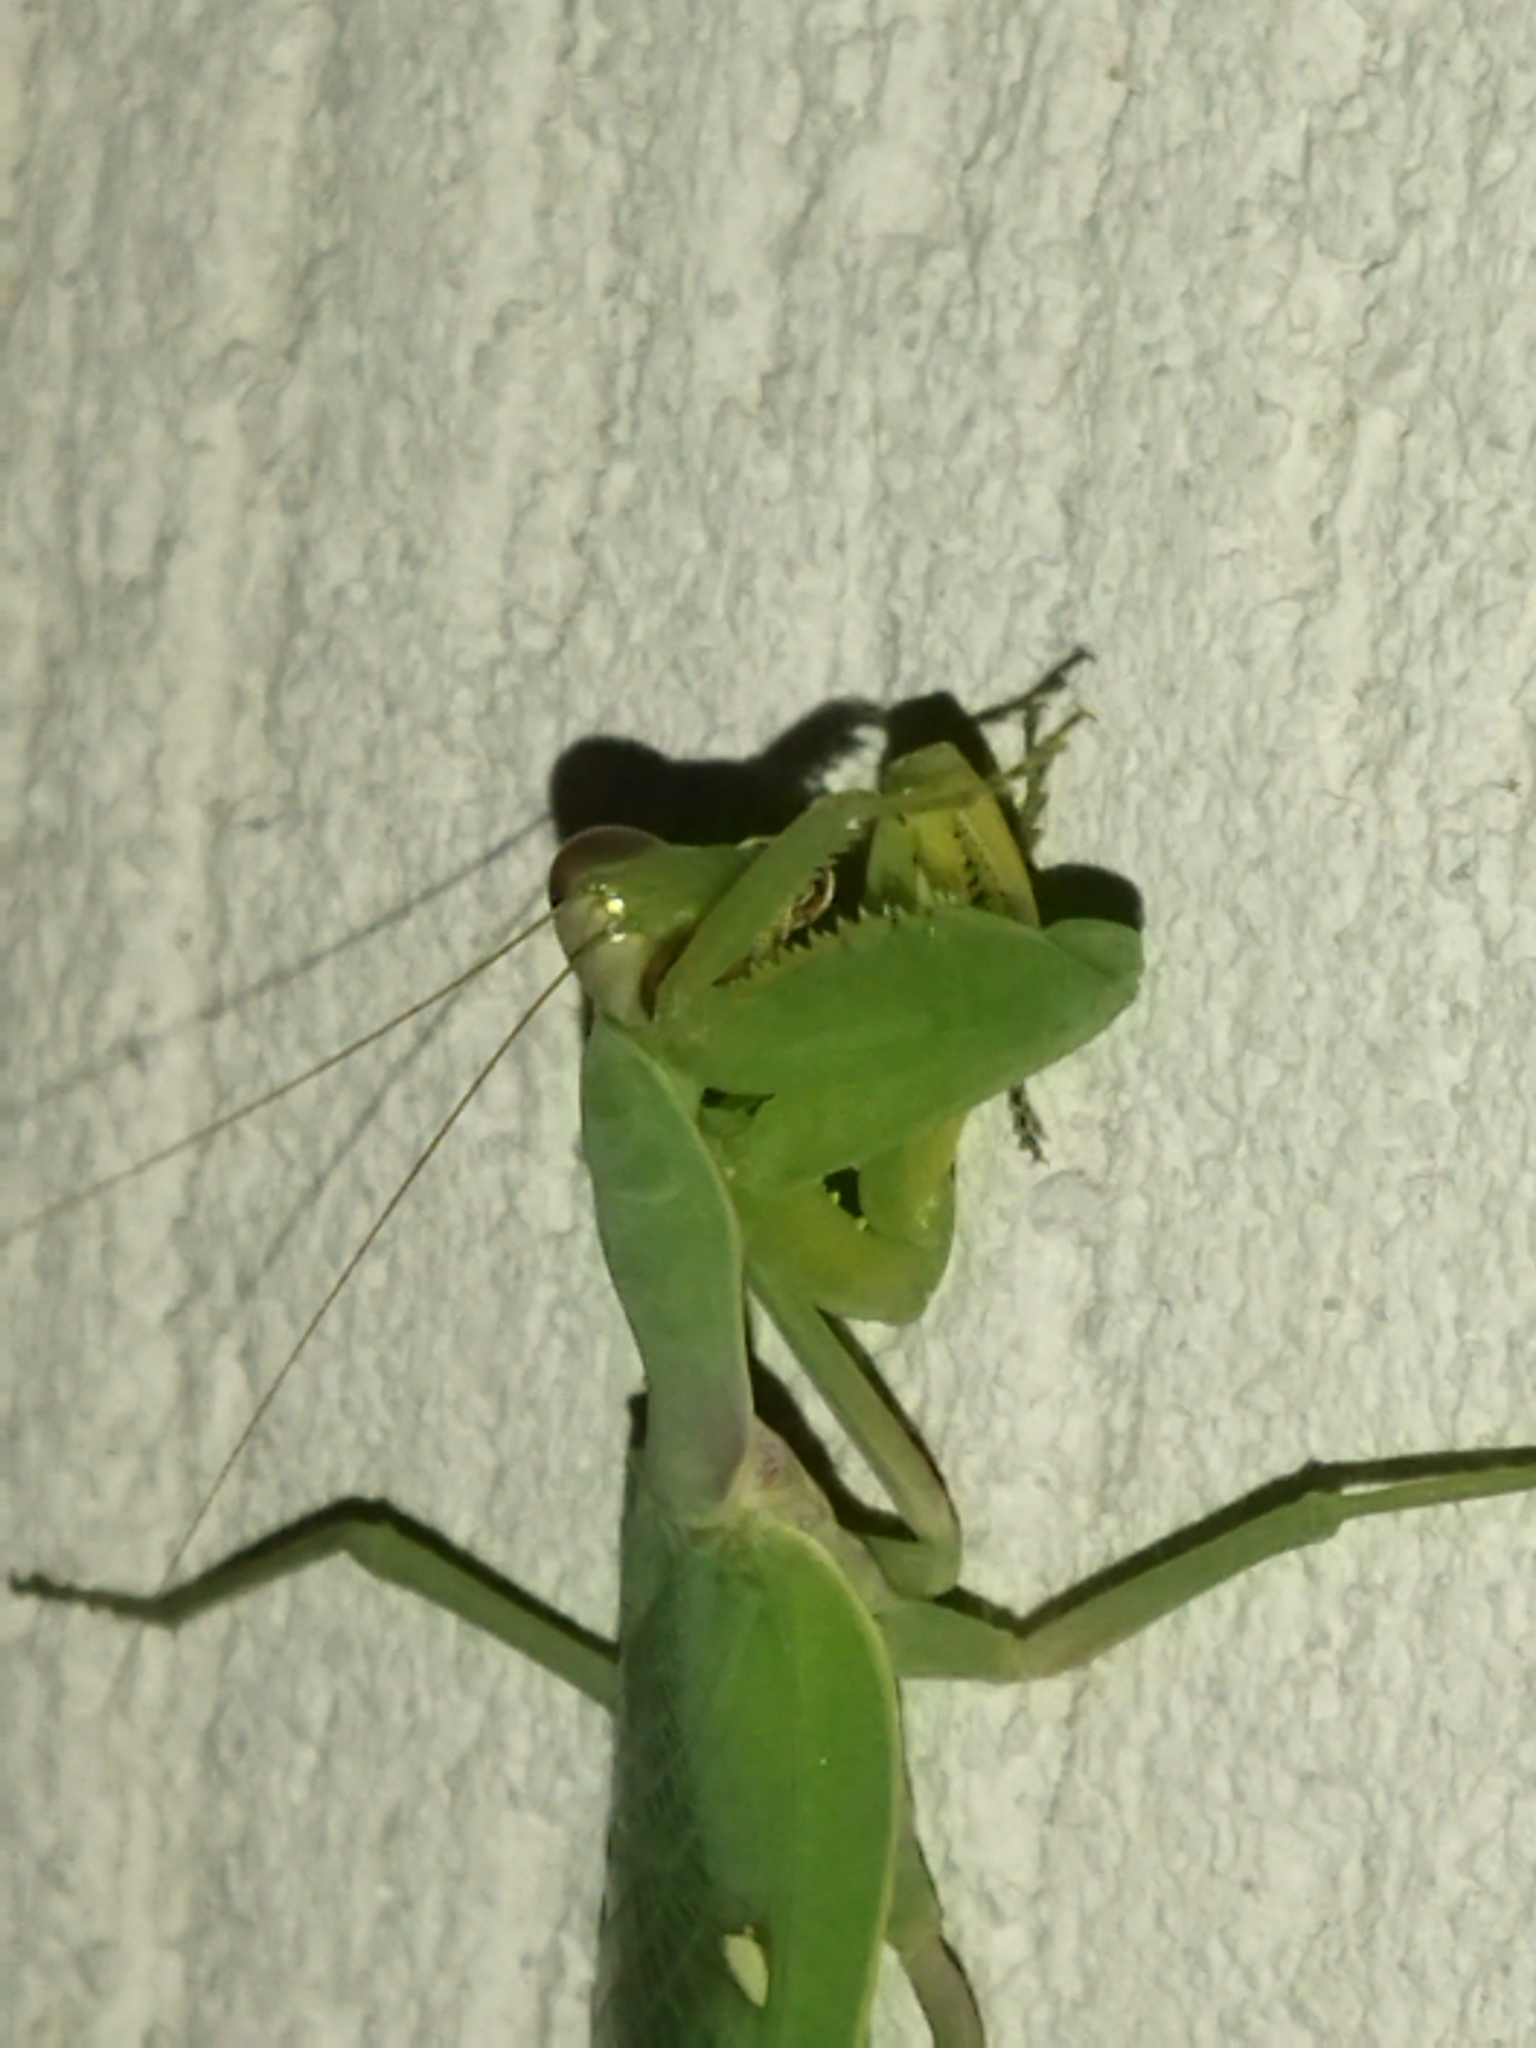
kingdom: Animalia
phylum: Arthropoda
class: Insecta
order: Mantodea
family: Mantidae
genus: Mantis
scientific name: Mantis religiosa
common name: Praying mantis
